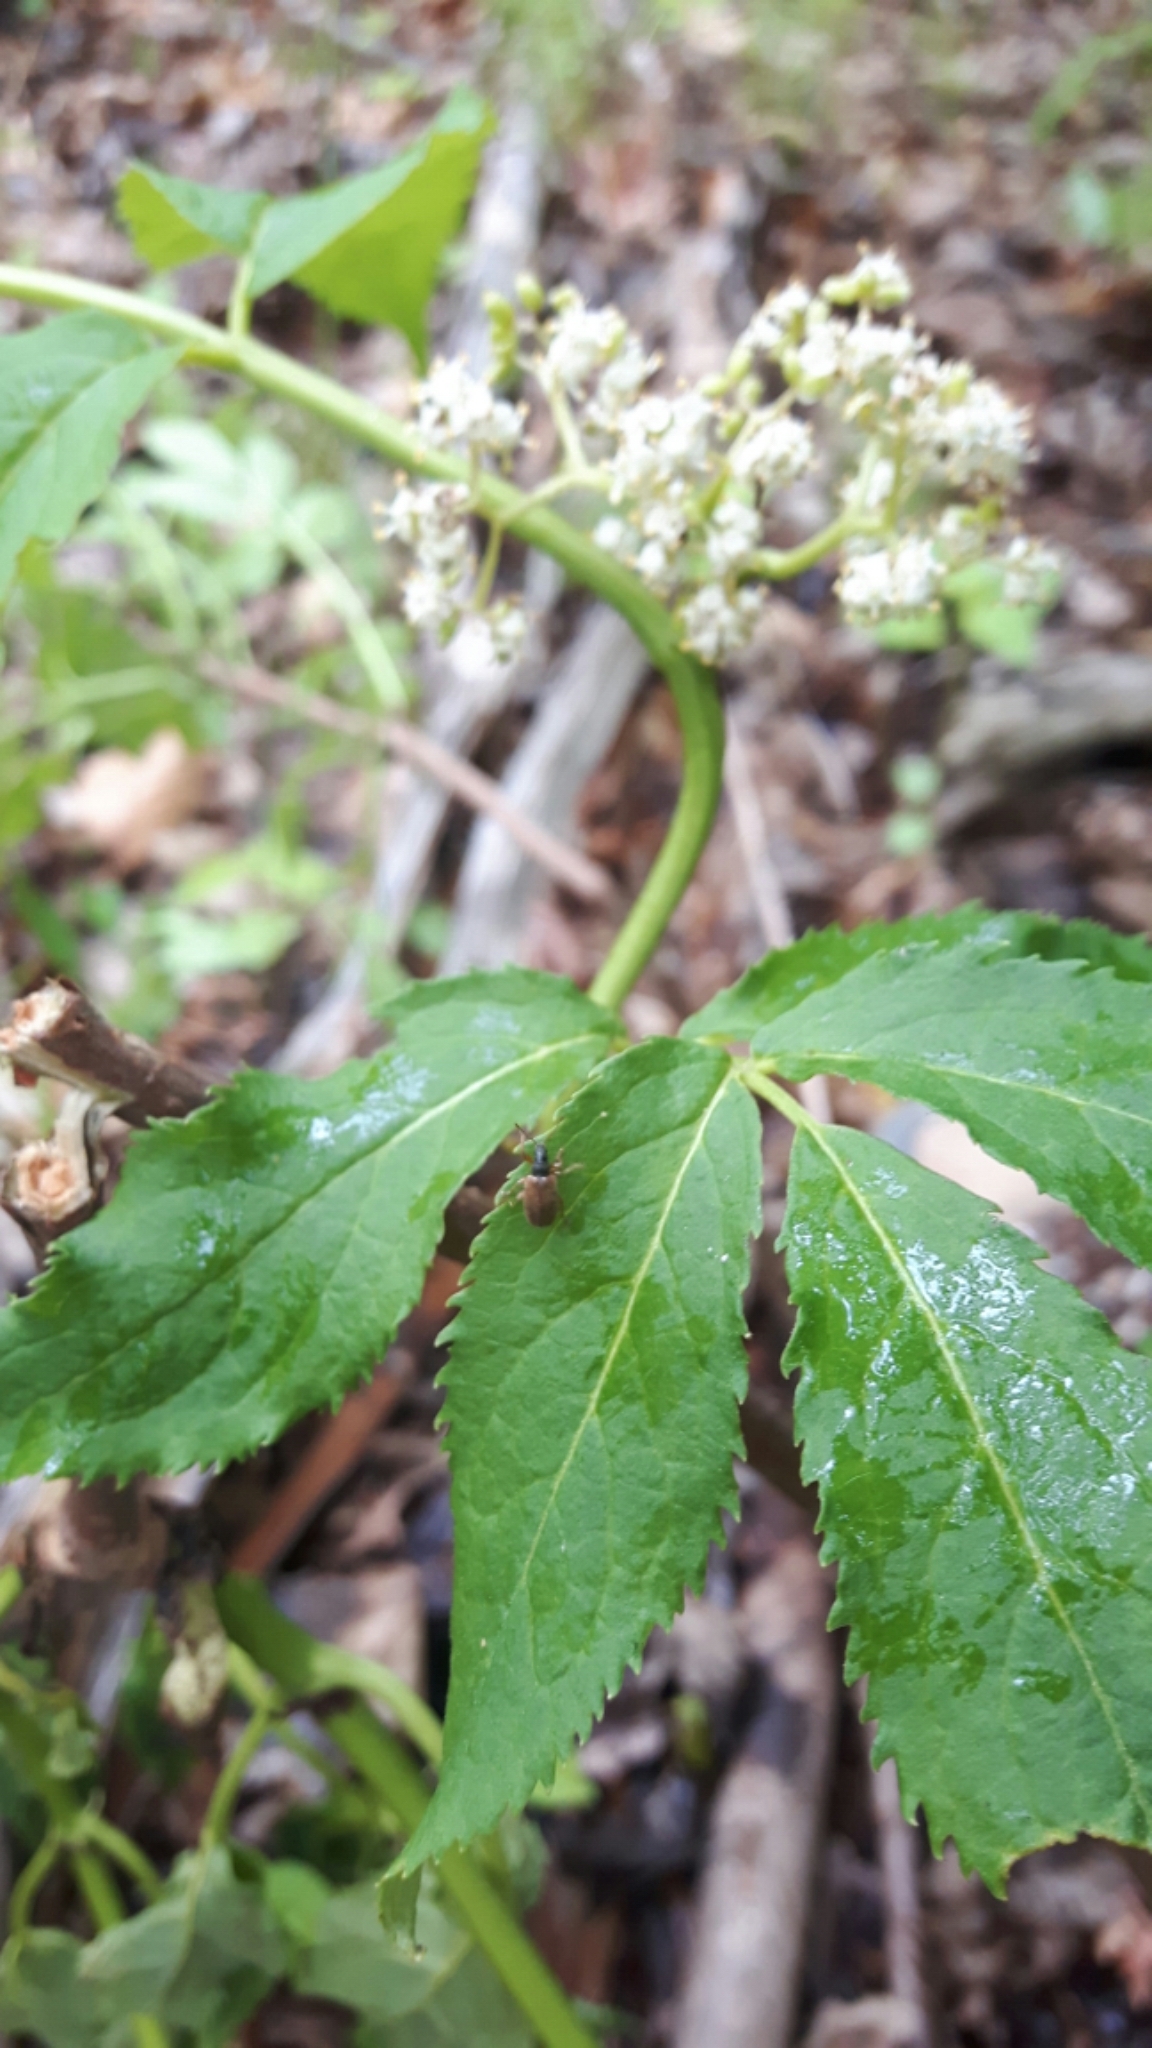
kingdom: Animalia
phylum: Arthropoda
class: Insecta
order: Coleoptera
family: Curculionidae
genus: Phyllobius
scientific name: Phyllobius oblongus
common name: Brown leaf weevil
